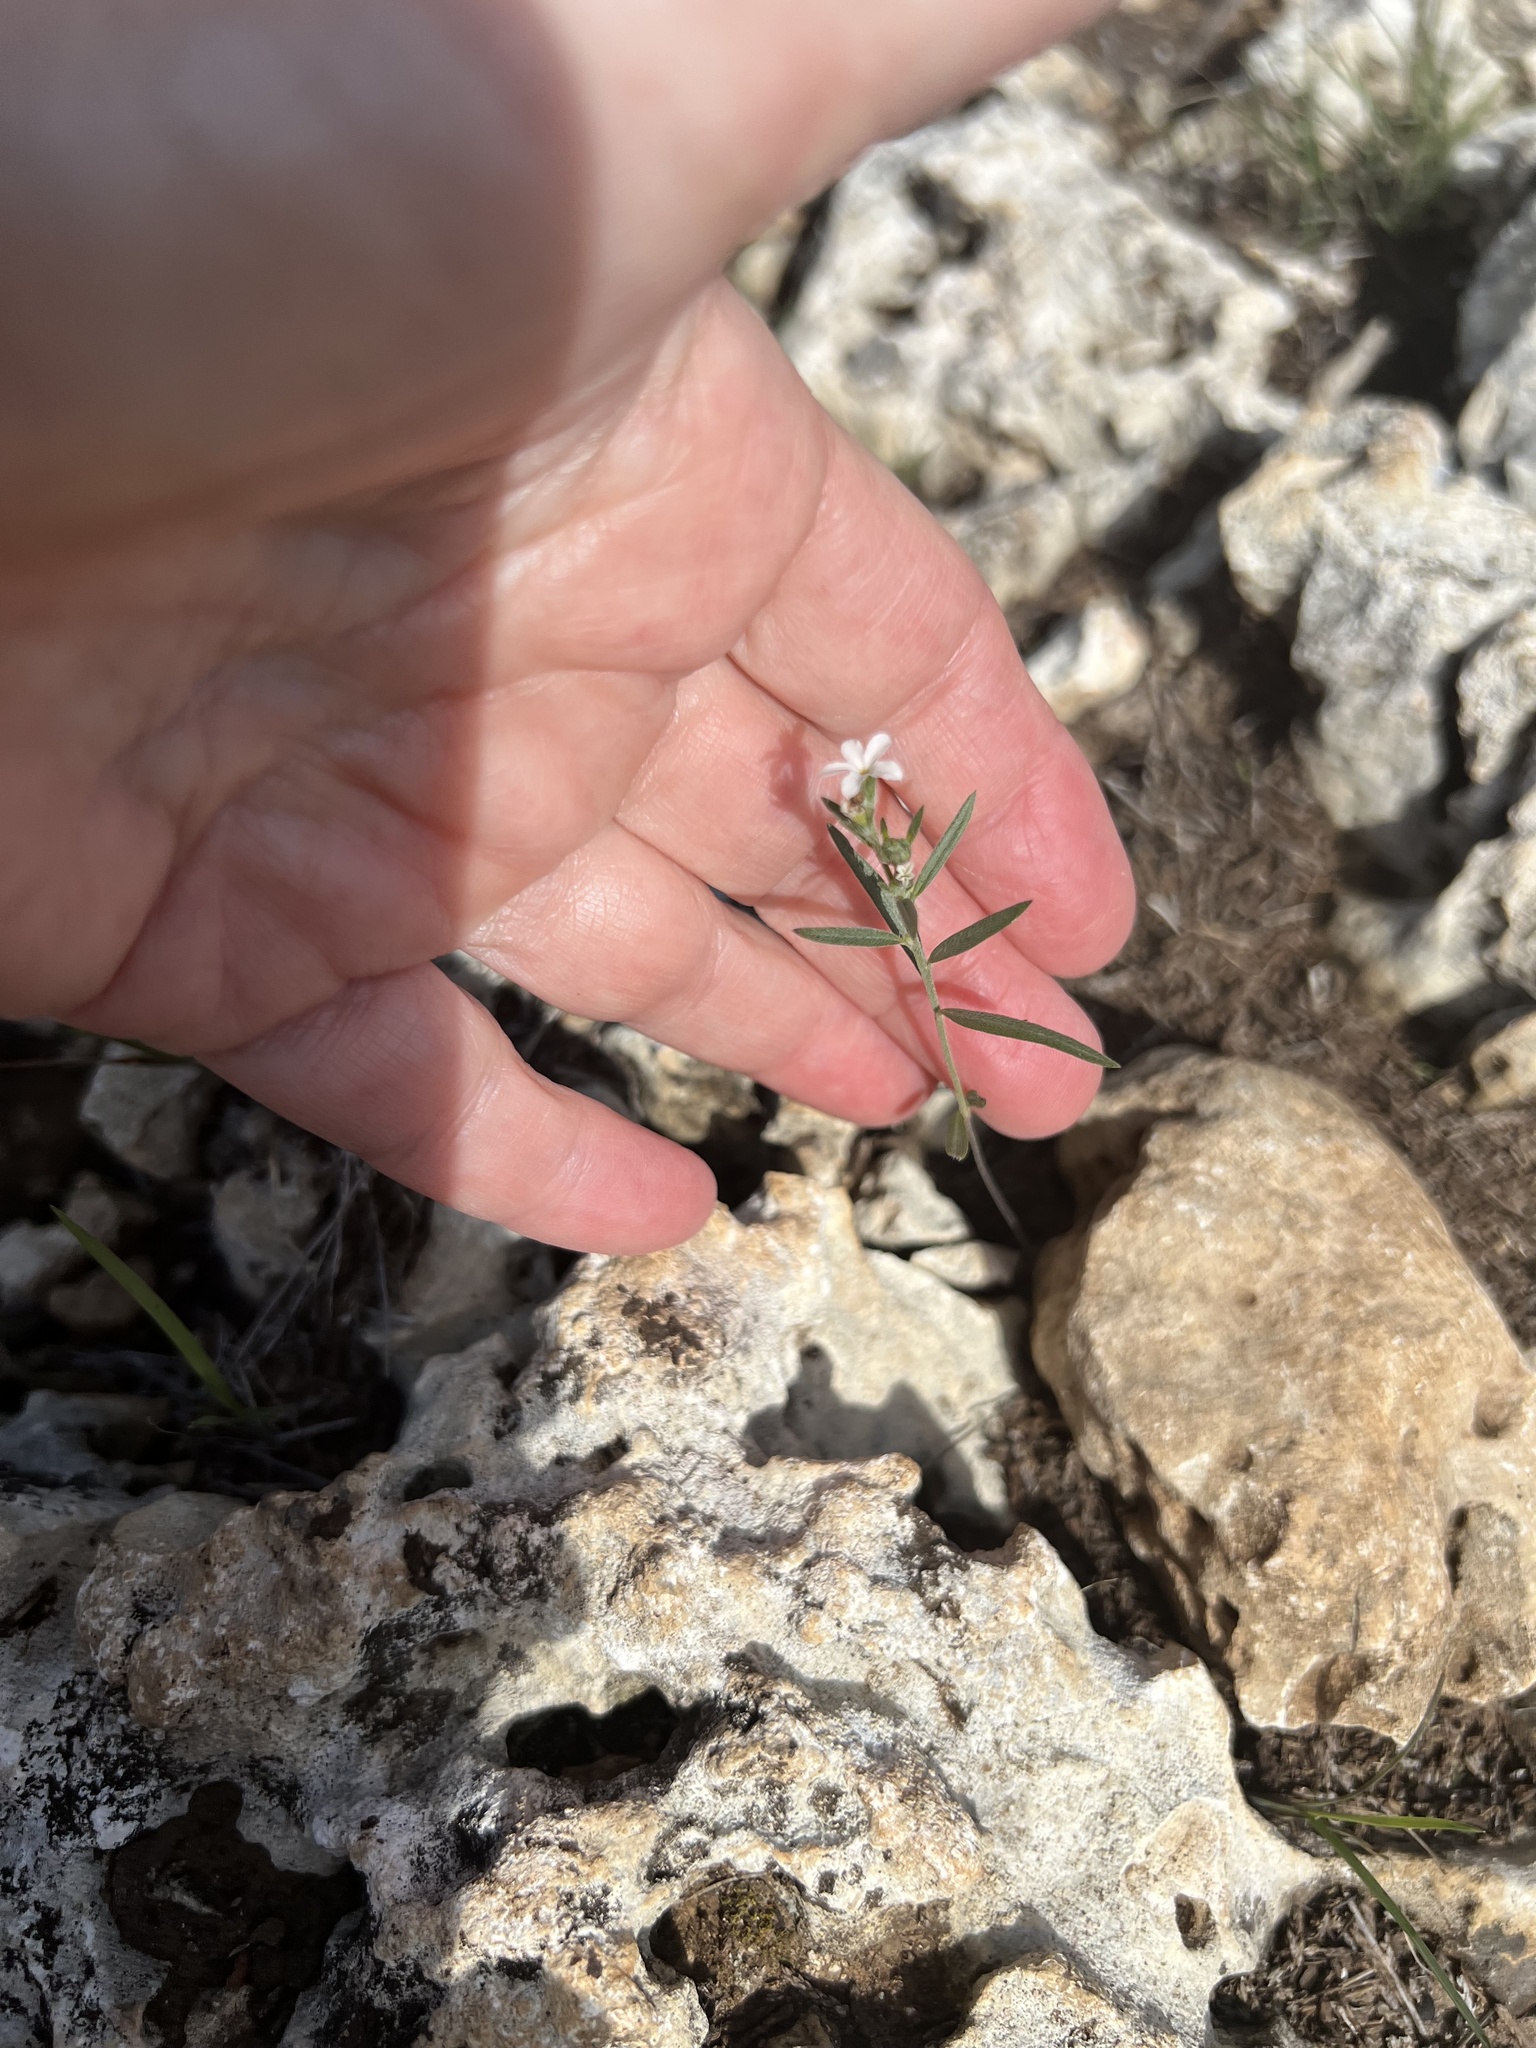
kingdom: Plantae
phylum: Tracheophyta
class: Magnoliopsida
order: Boraginales
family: Heliotropiaceae
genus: Euploca
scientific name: Euploca tenella
